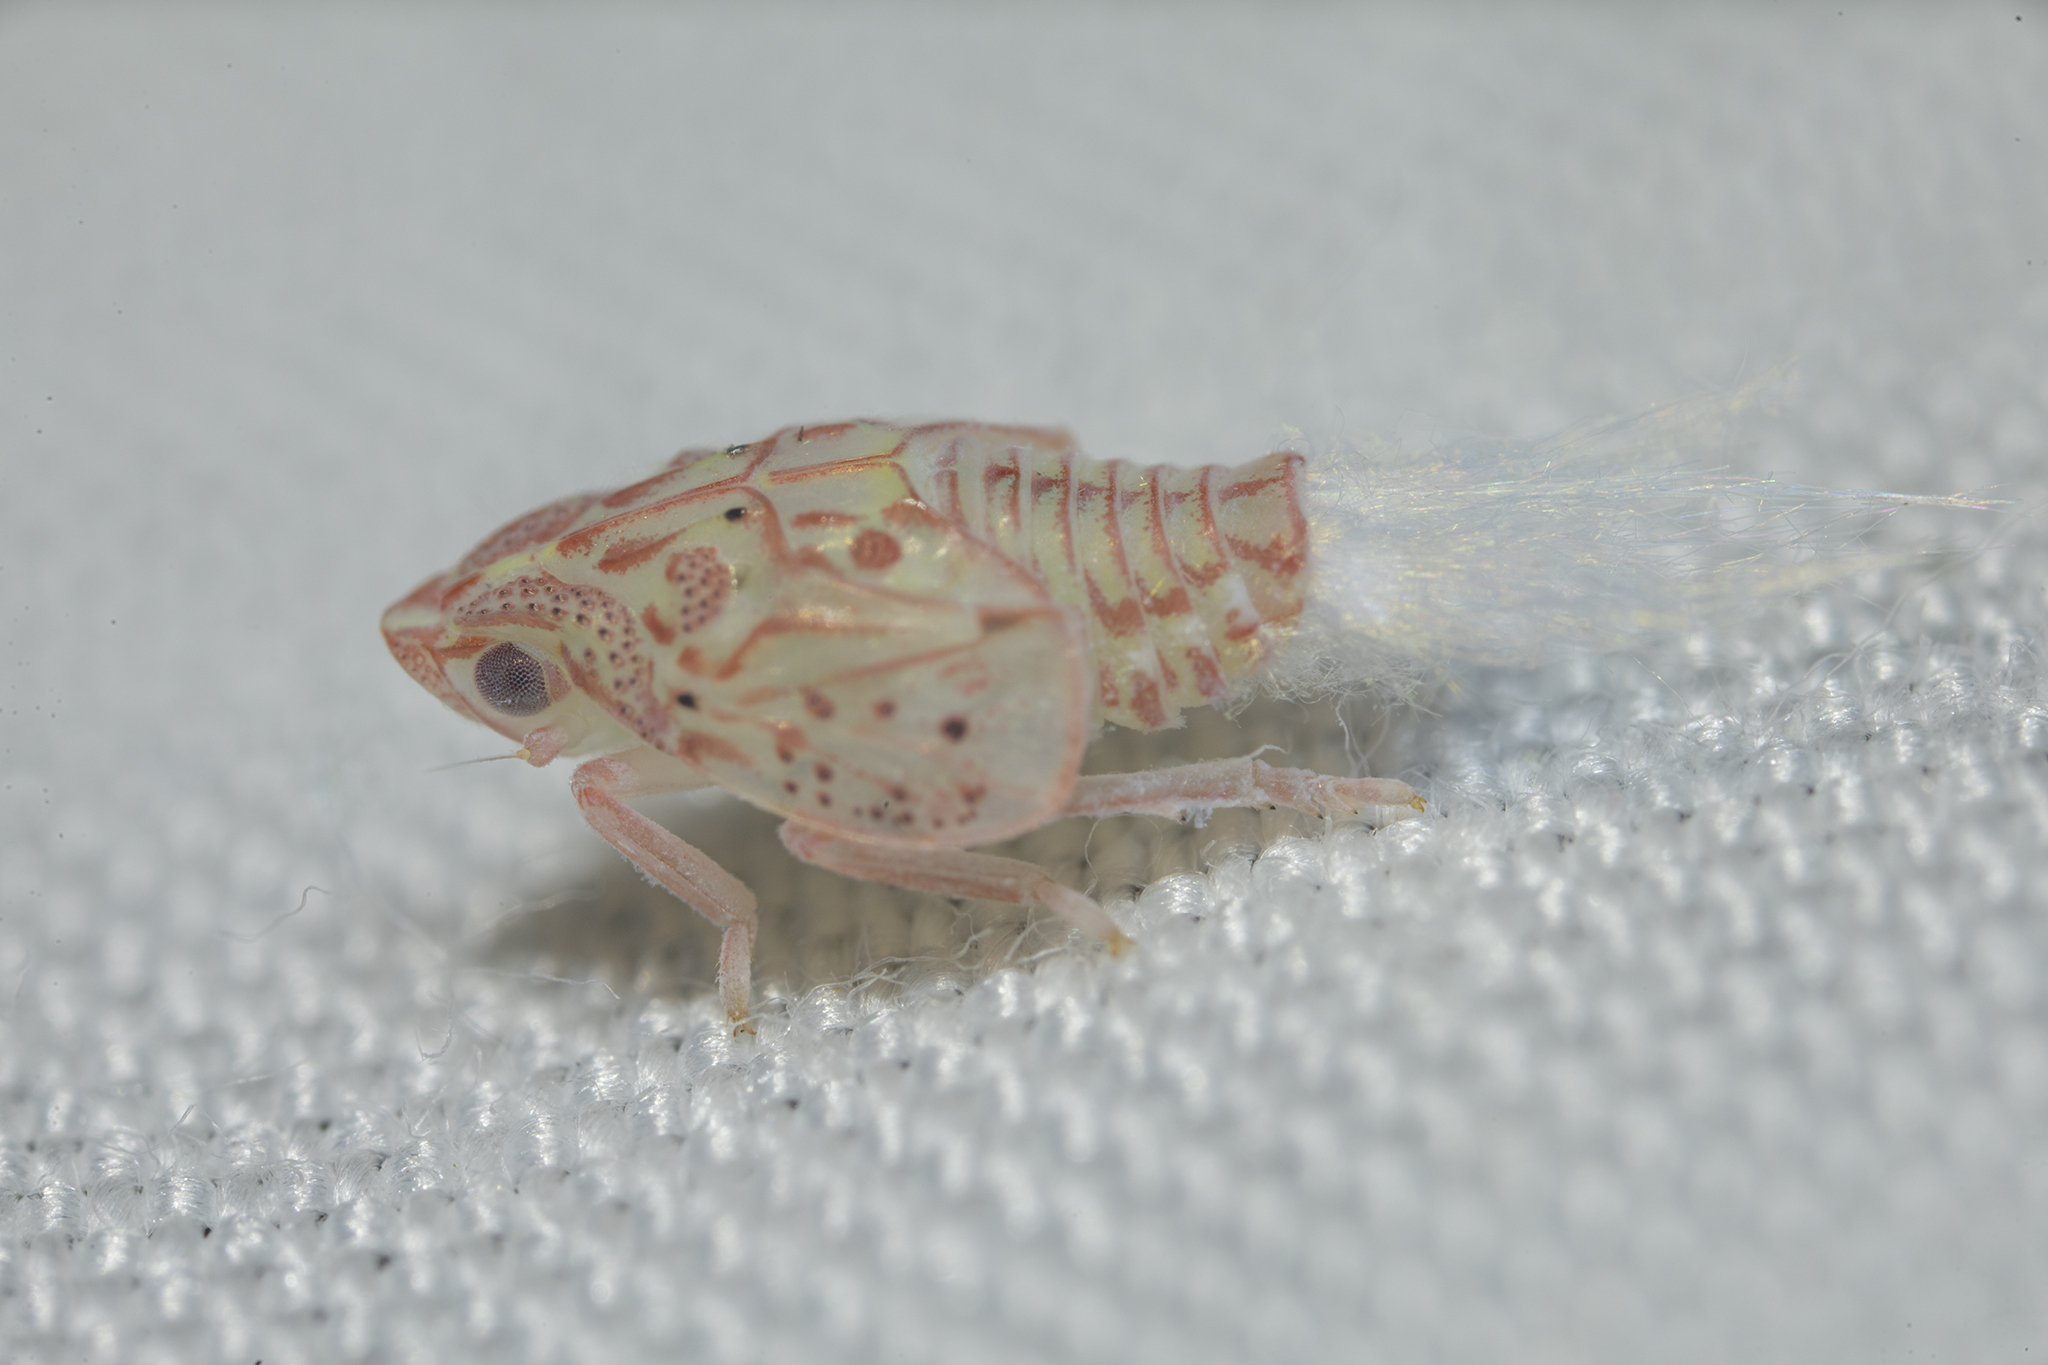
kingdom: Animalia
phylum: Arthropoda
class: Insecta
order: Hemiptera
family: Flatidae
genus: Siphanta
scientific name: Siphanta acuta
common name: Torpedo bug
